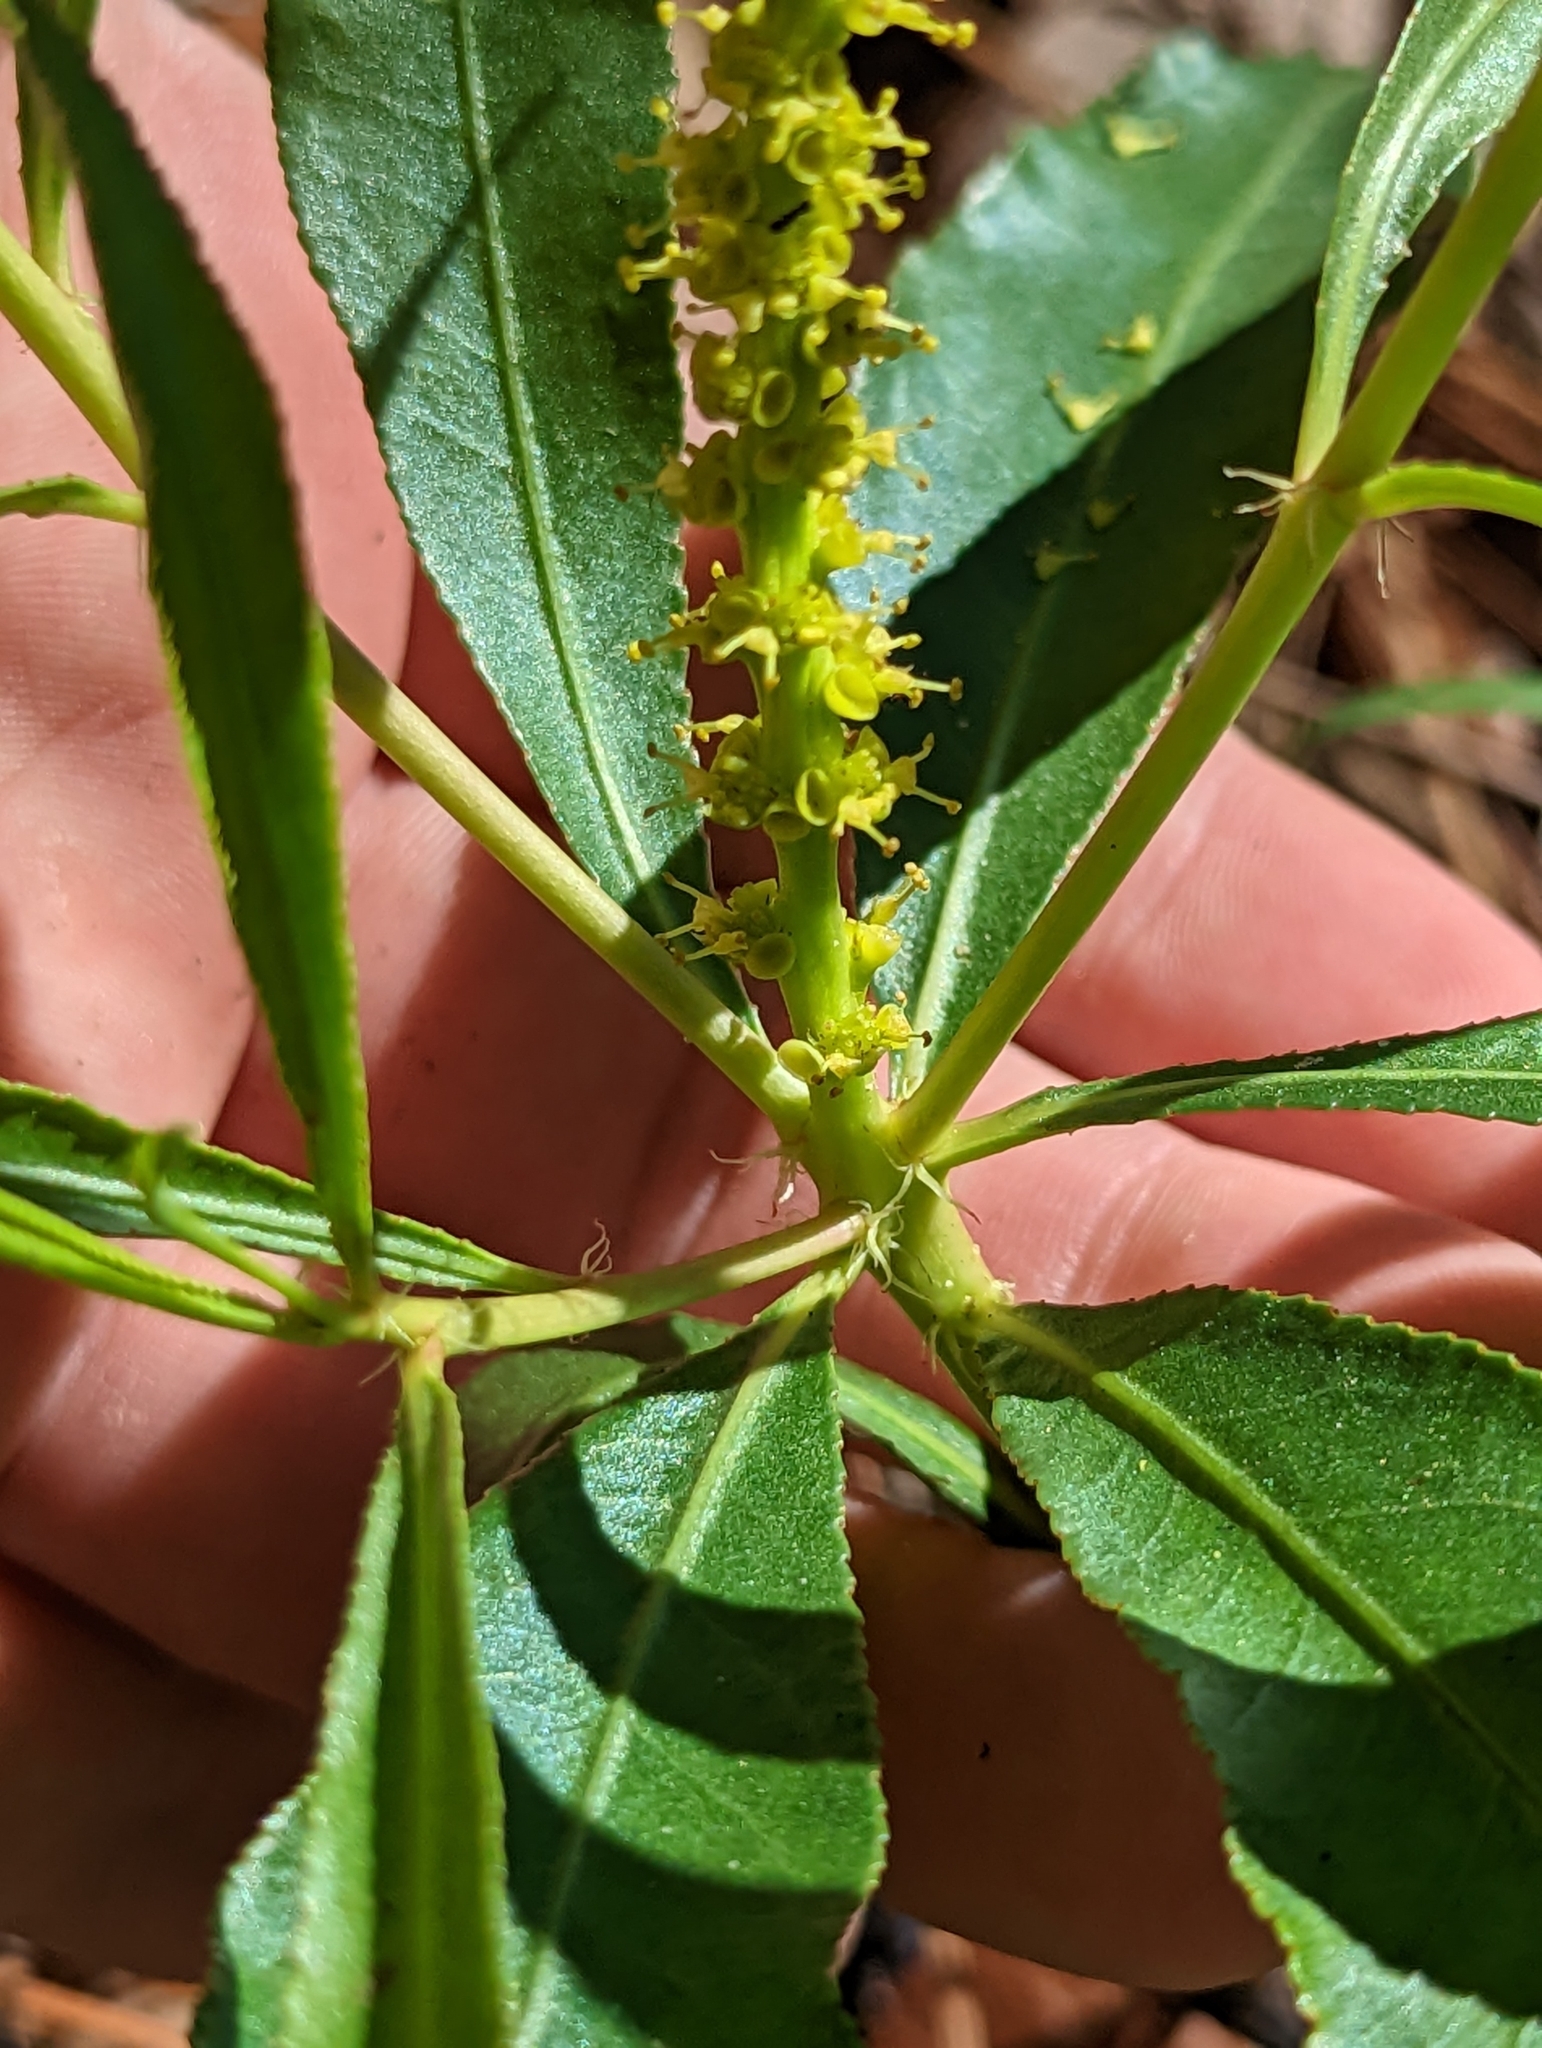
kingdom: Plantae
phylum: Tracheophyta
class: Magnoliopsida
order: Malpighiales
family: Euphorbiaceae
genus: Stillingia
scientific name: Stillingia sylvatica
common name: Queen's-delight
